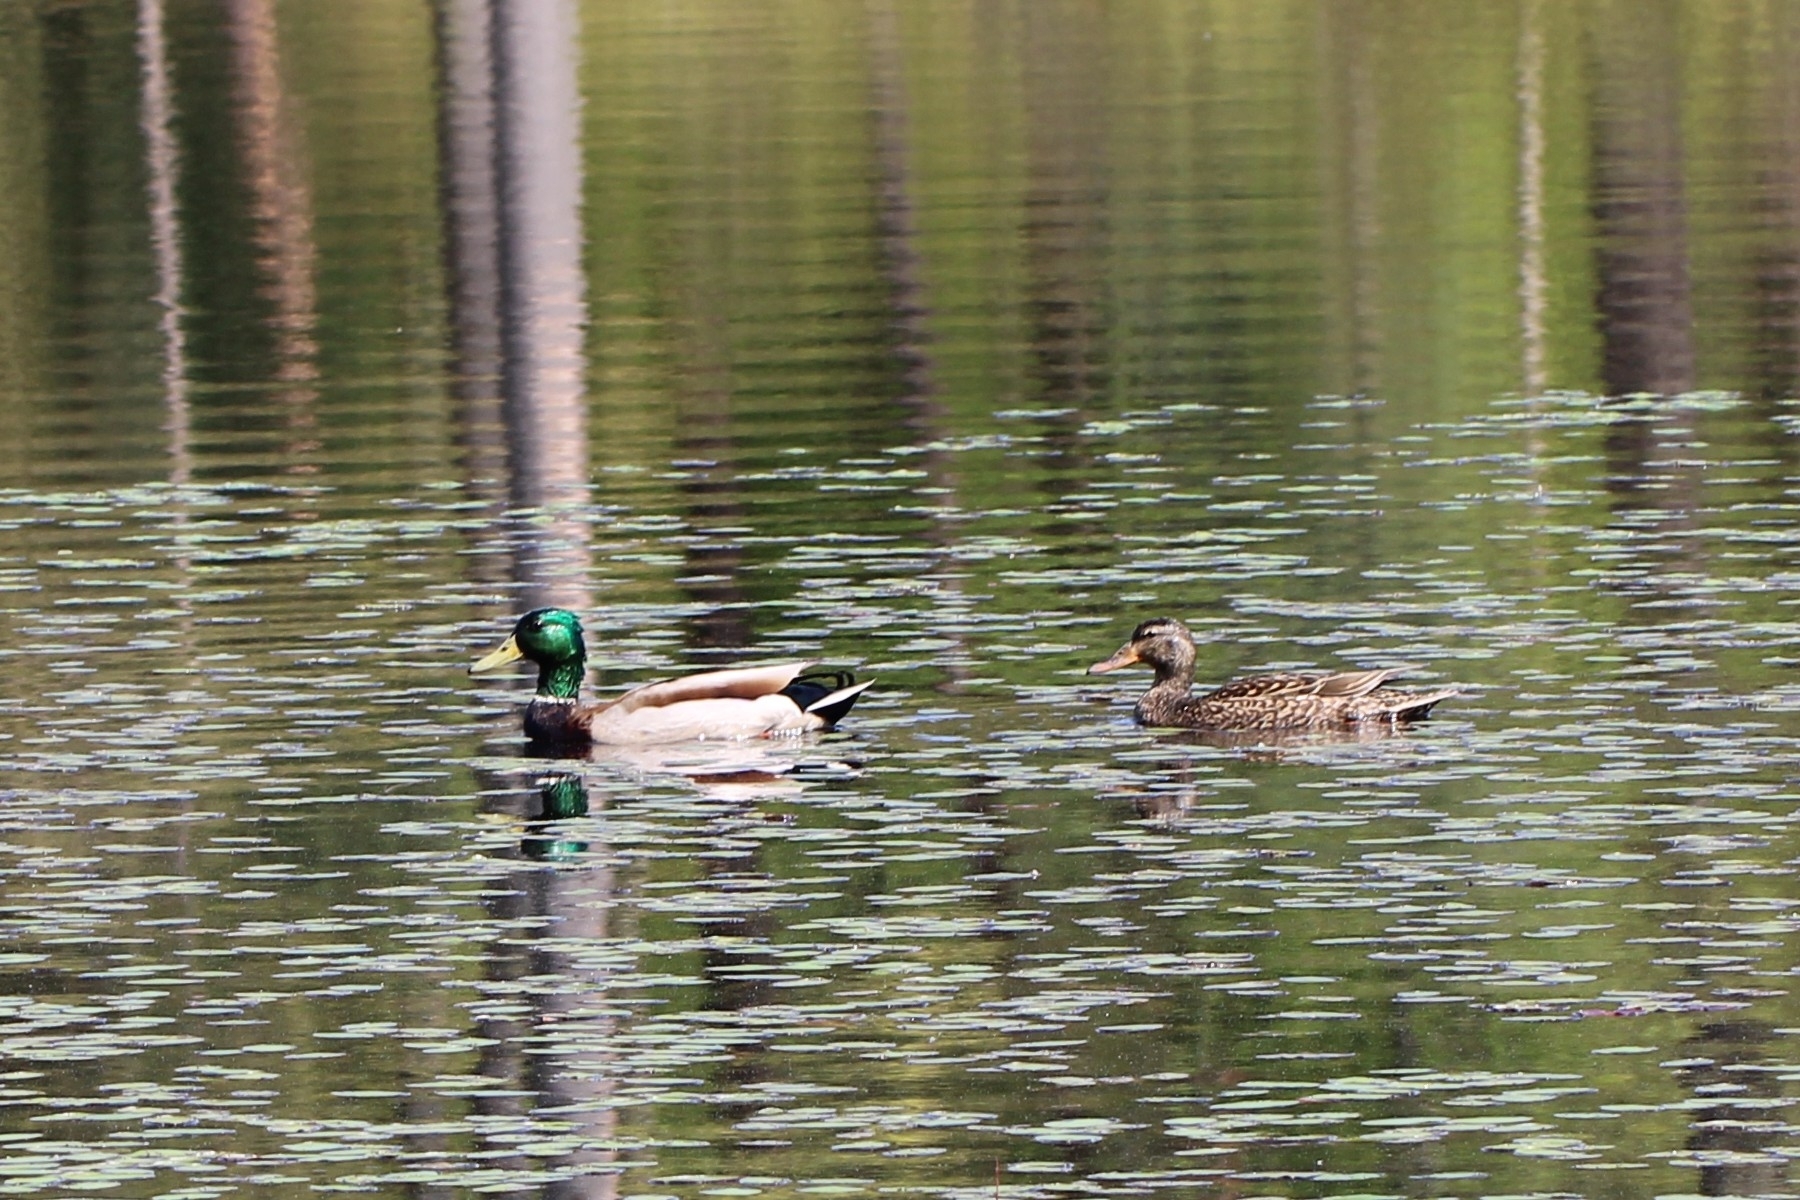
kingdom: Animalia
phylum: Chordata
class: Aves
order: Anseriformes
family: Anatidae
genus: Anas
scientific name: Anas platyrhynchos
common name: Mallard
